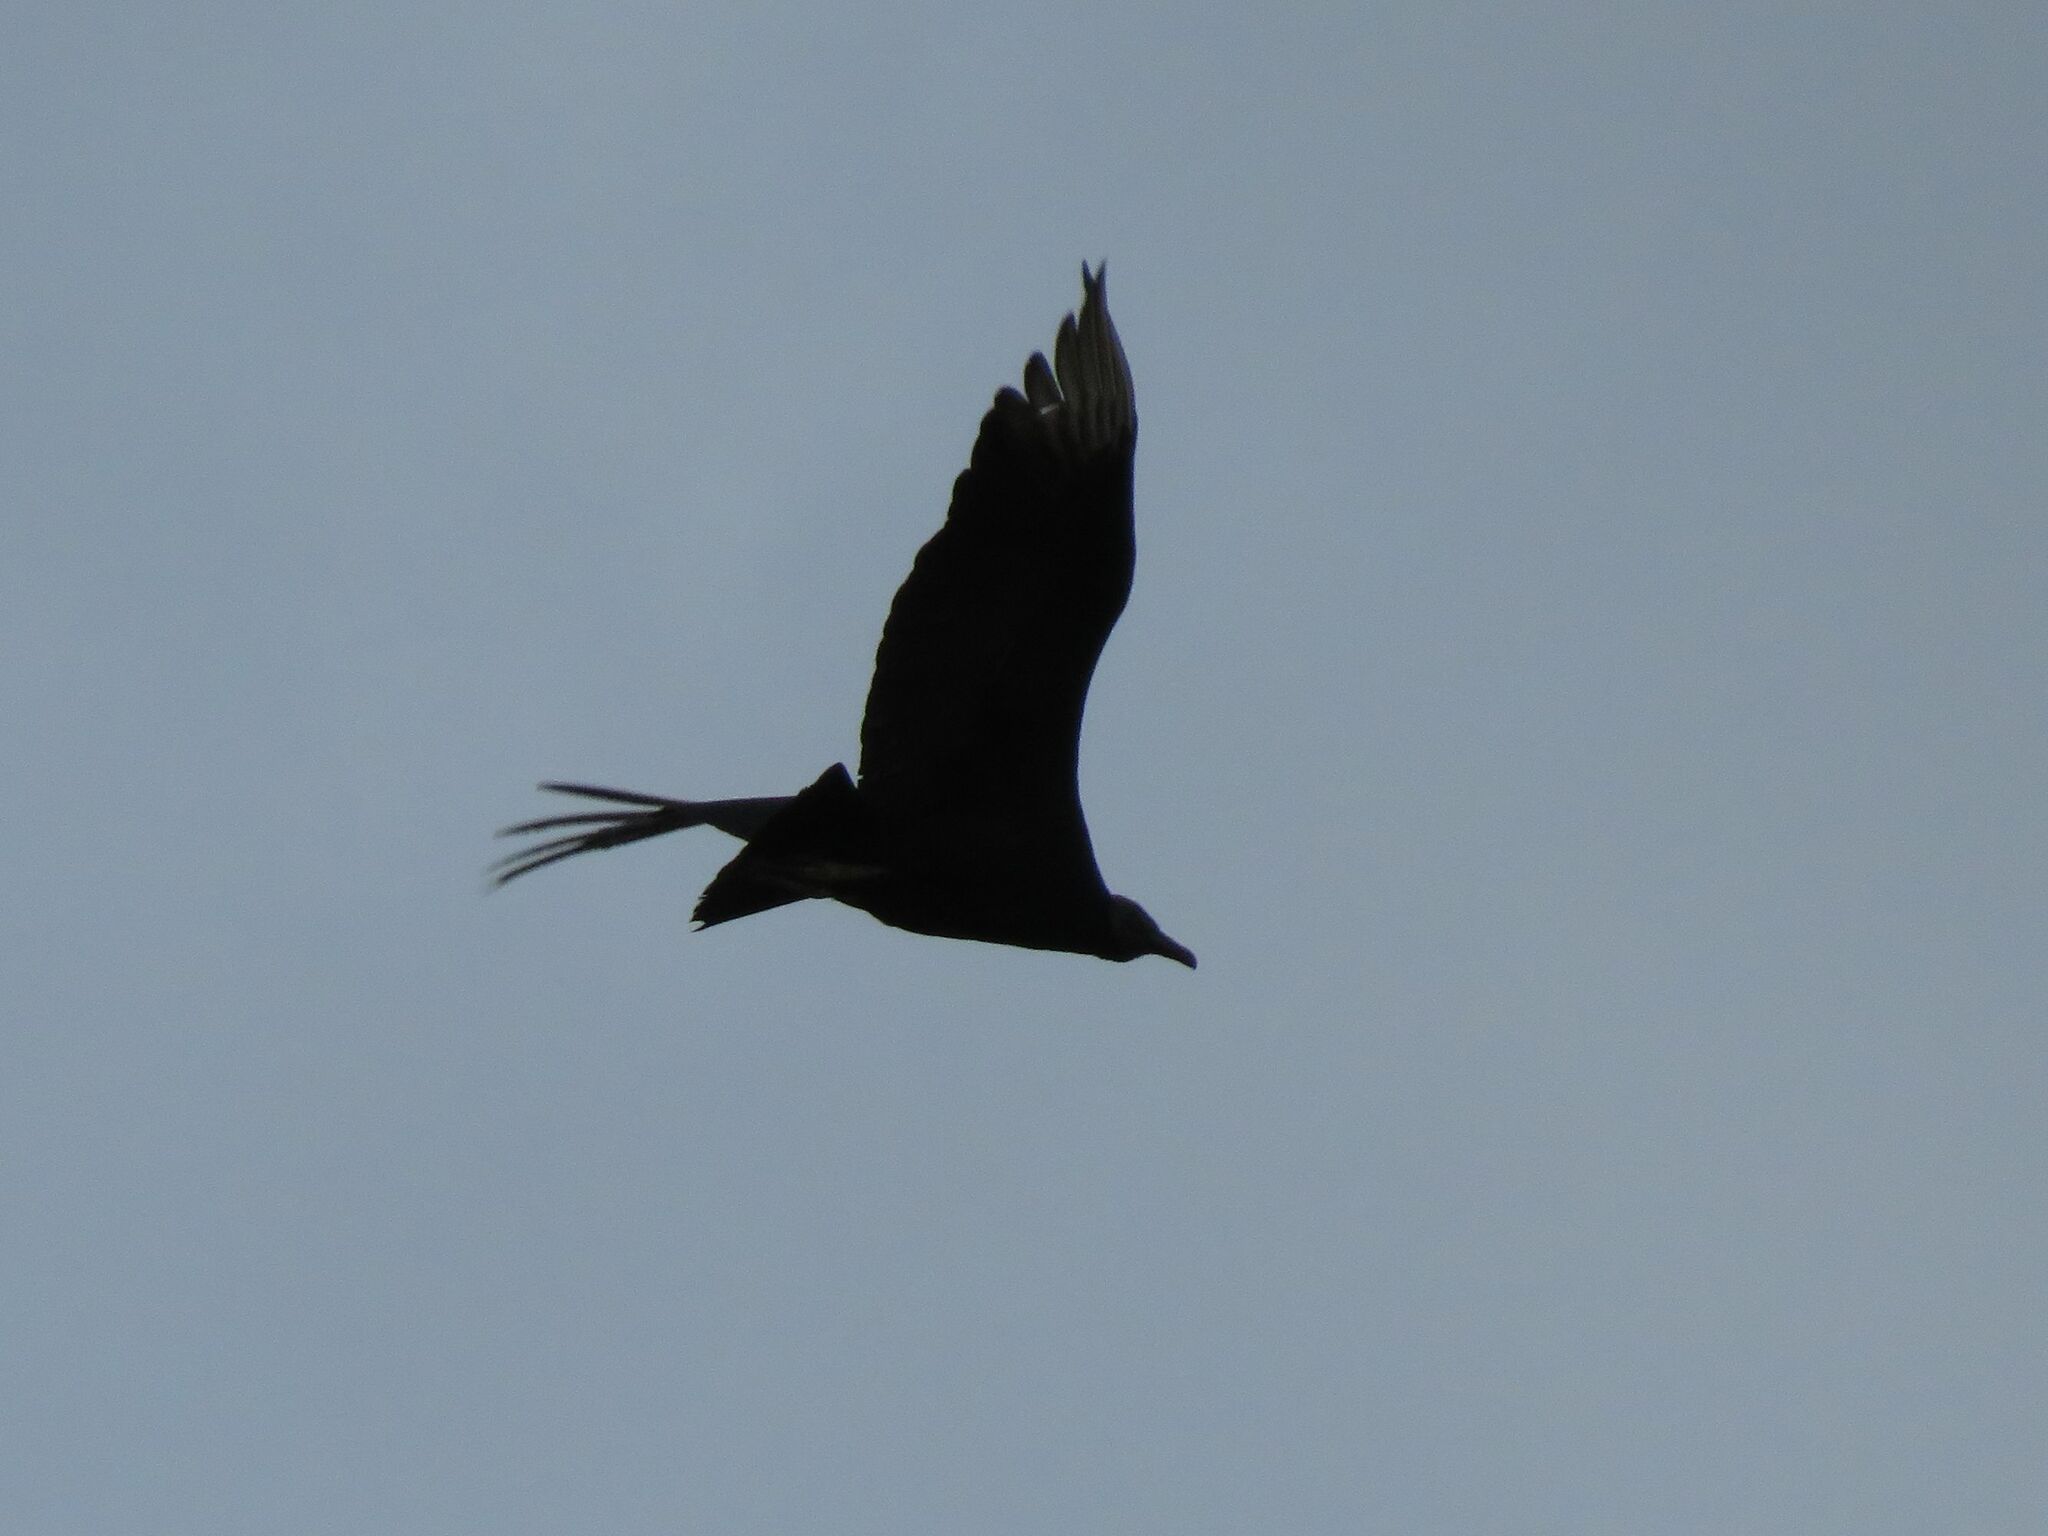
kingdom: Animalia
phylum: Chordata
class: Aves
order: Accipitriformes
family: Cathartidae
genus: Coragyps
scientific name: Coragyps atratus
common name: Black vulture
